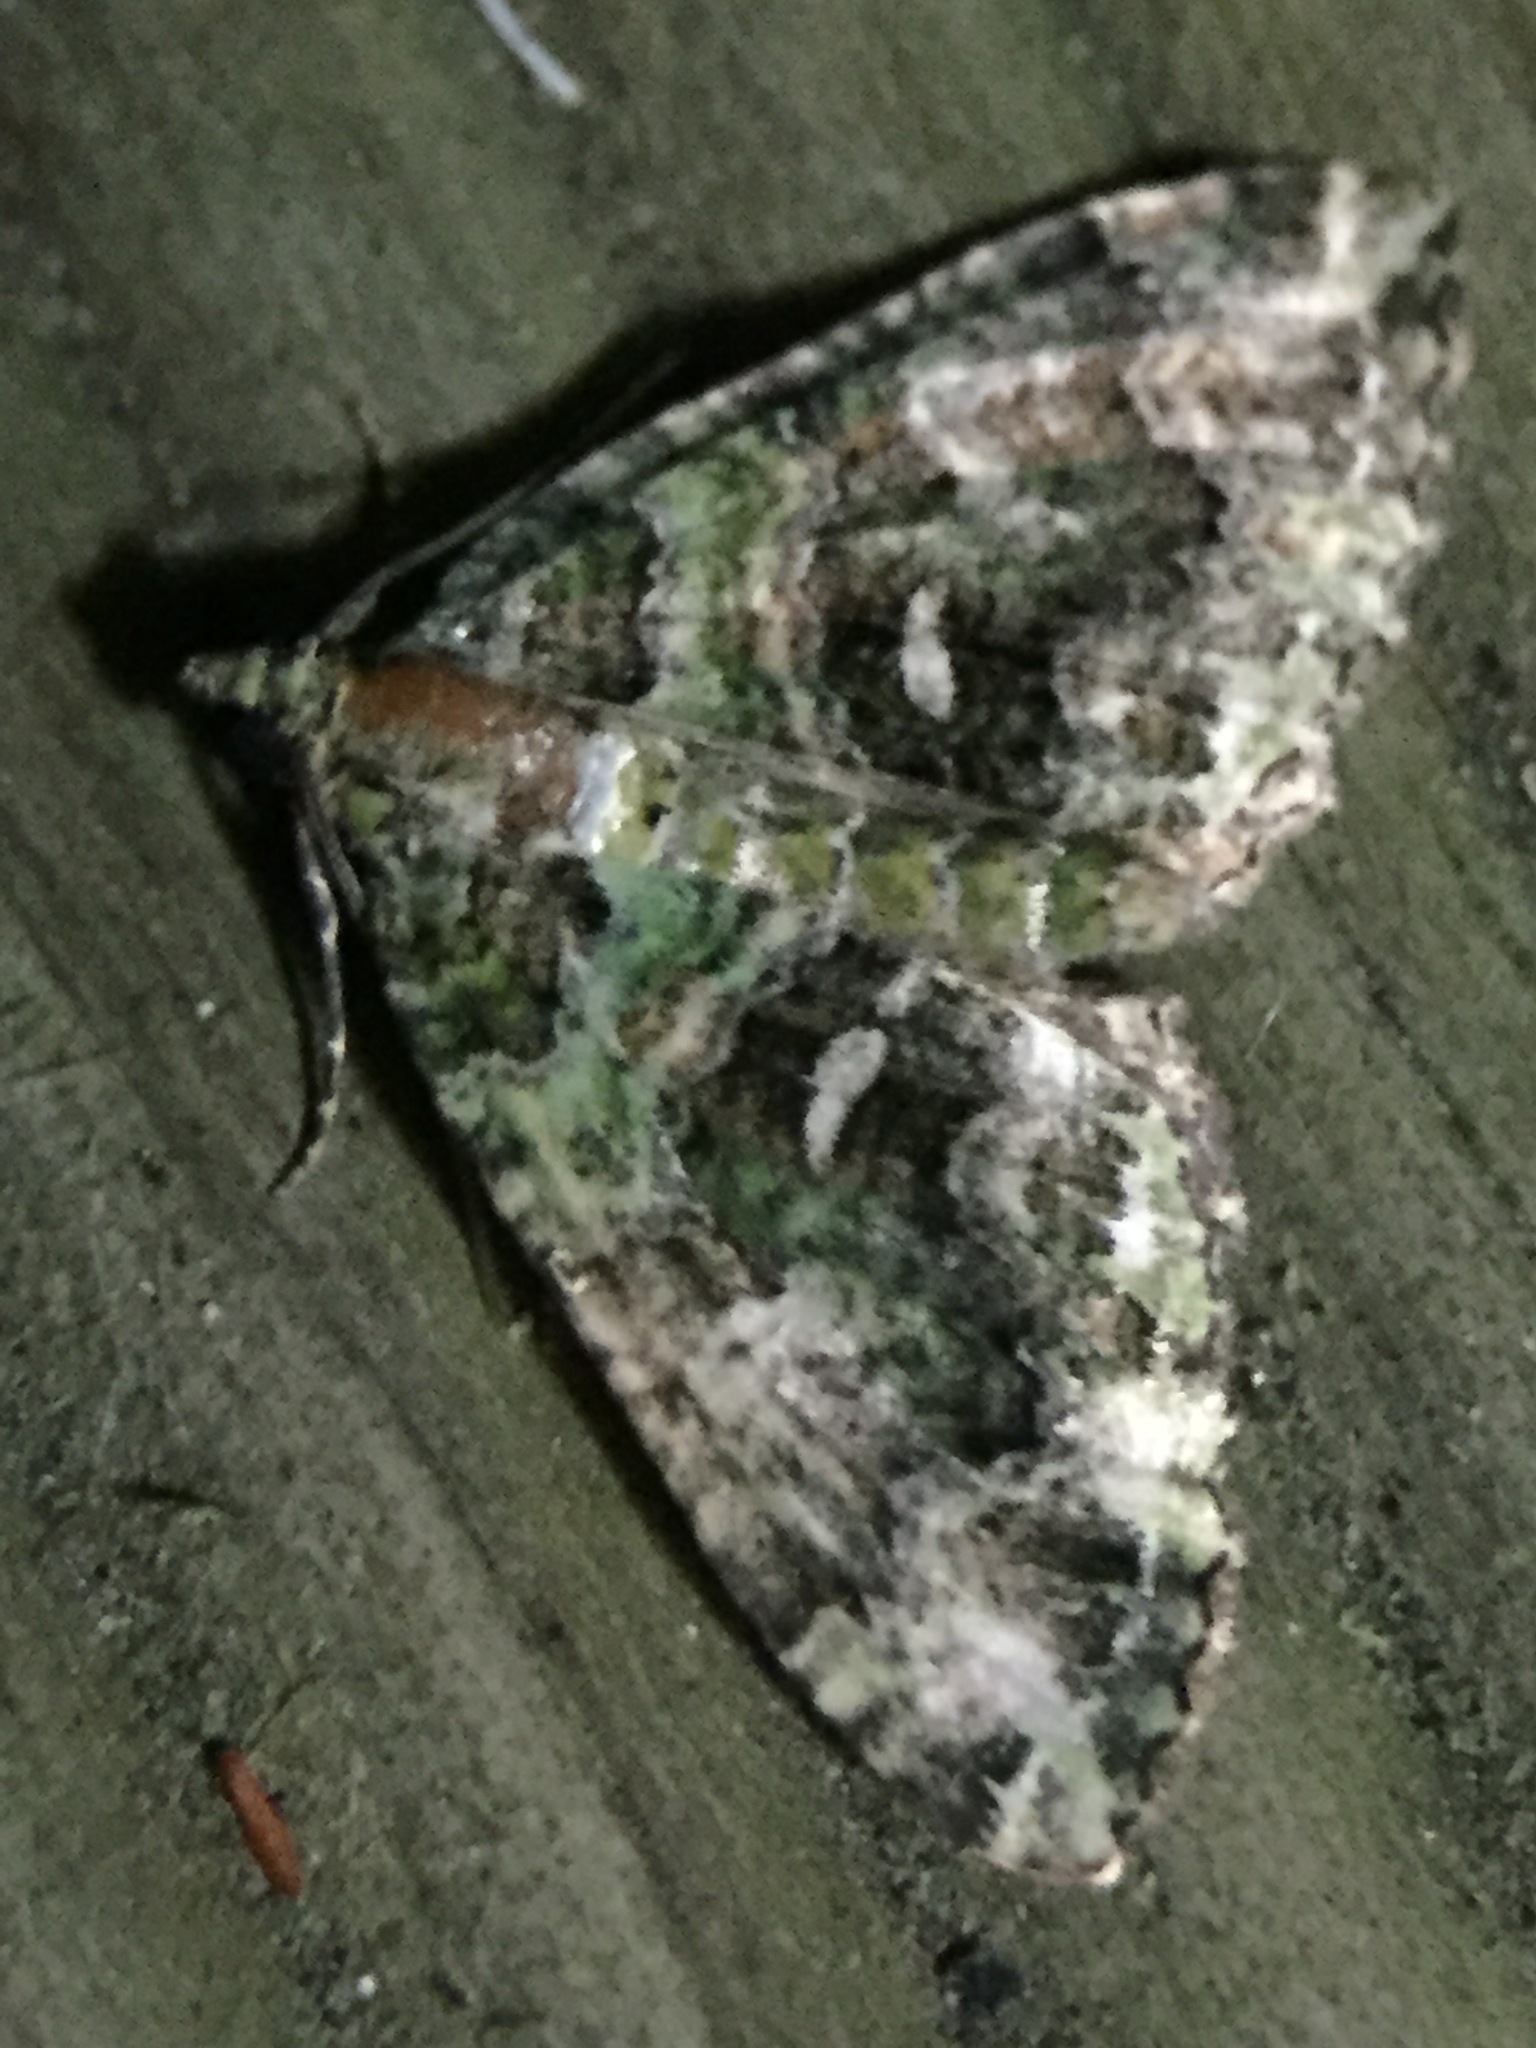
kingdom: Animalia
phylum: Arthropoda
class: Insecta
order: Lepidoptera
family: Geometridae
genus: Austrocidaria
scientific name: Austrocidaria similata
